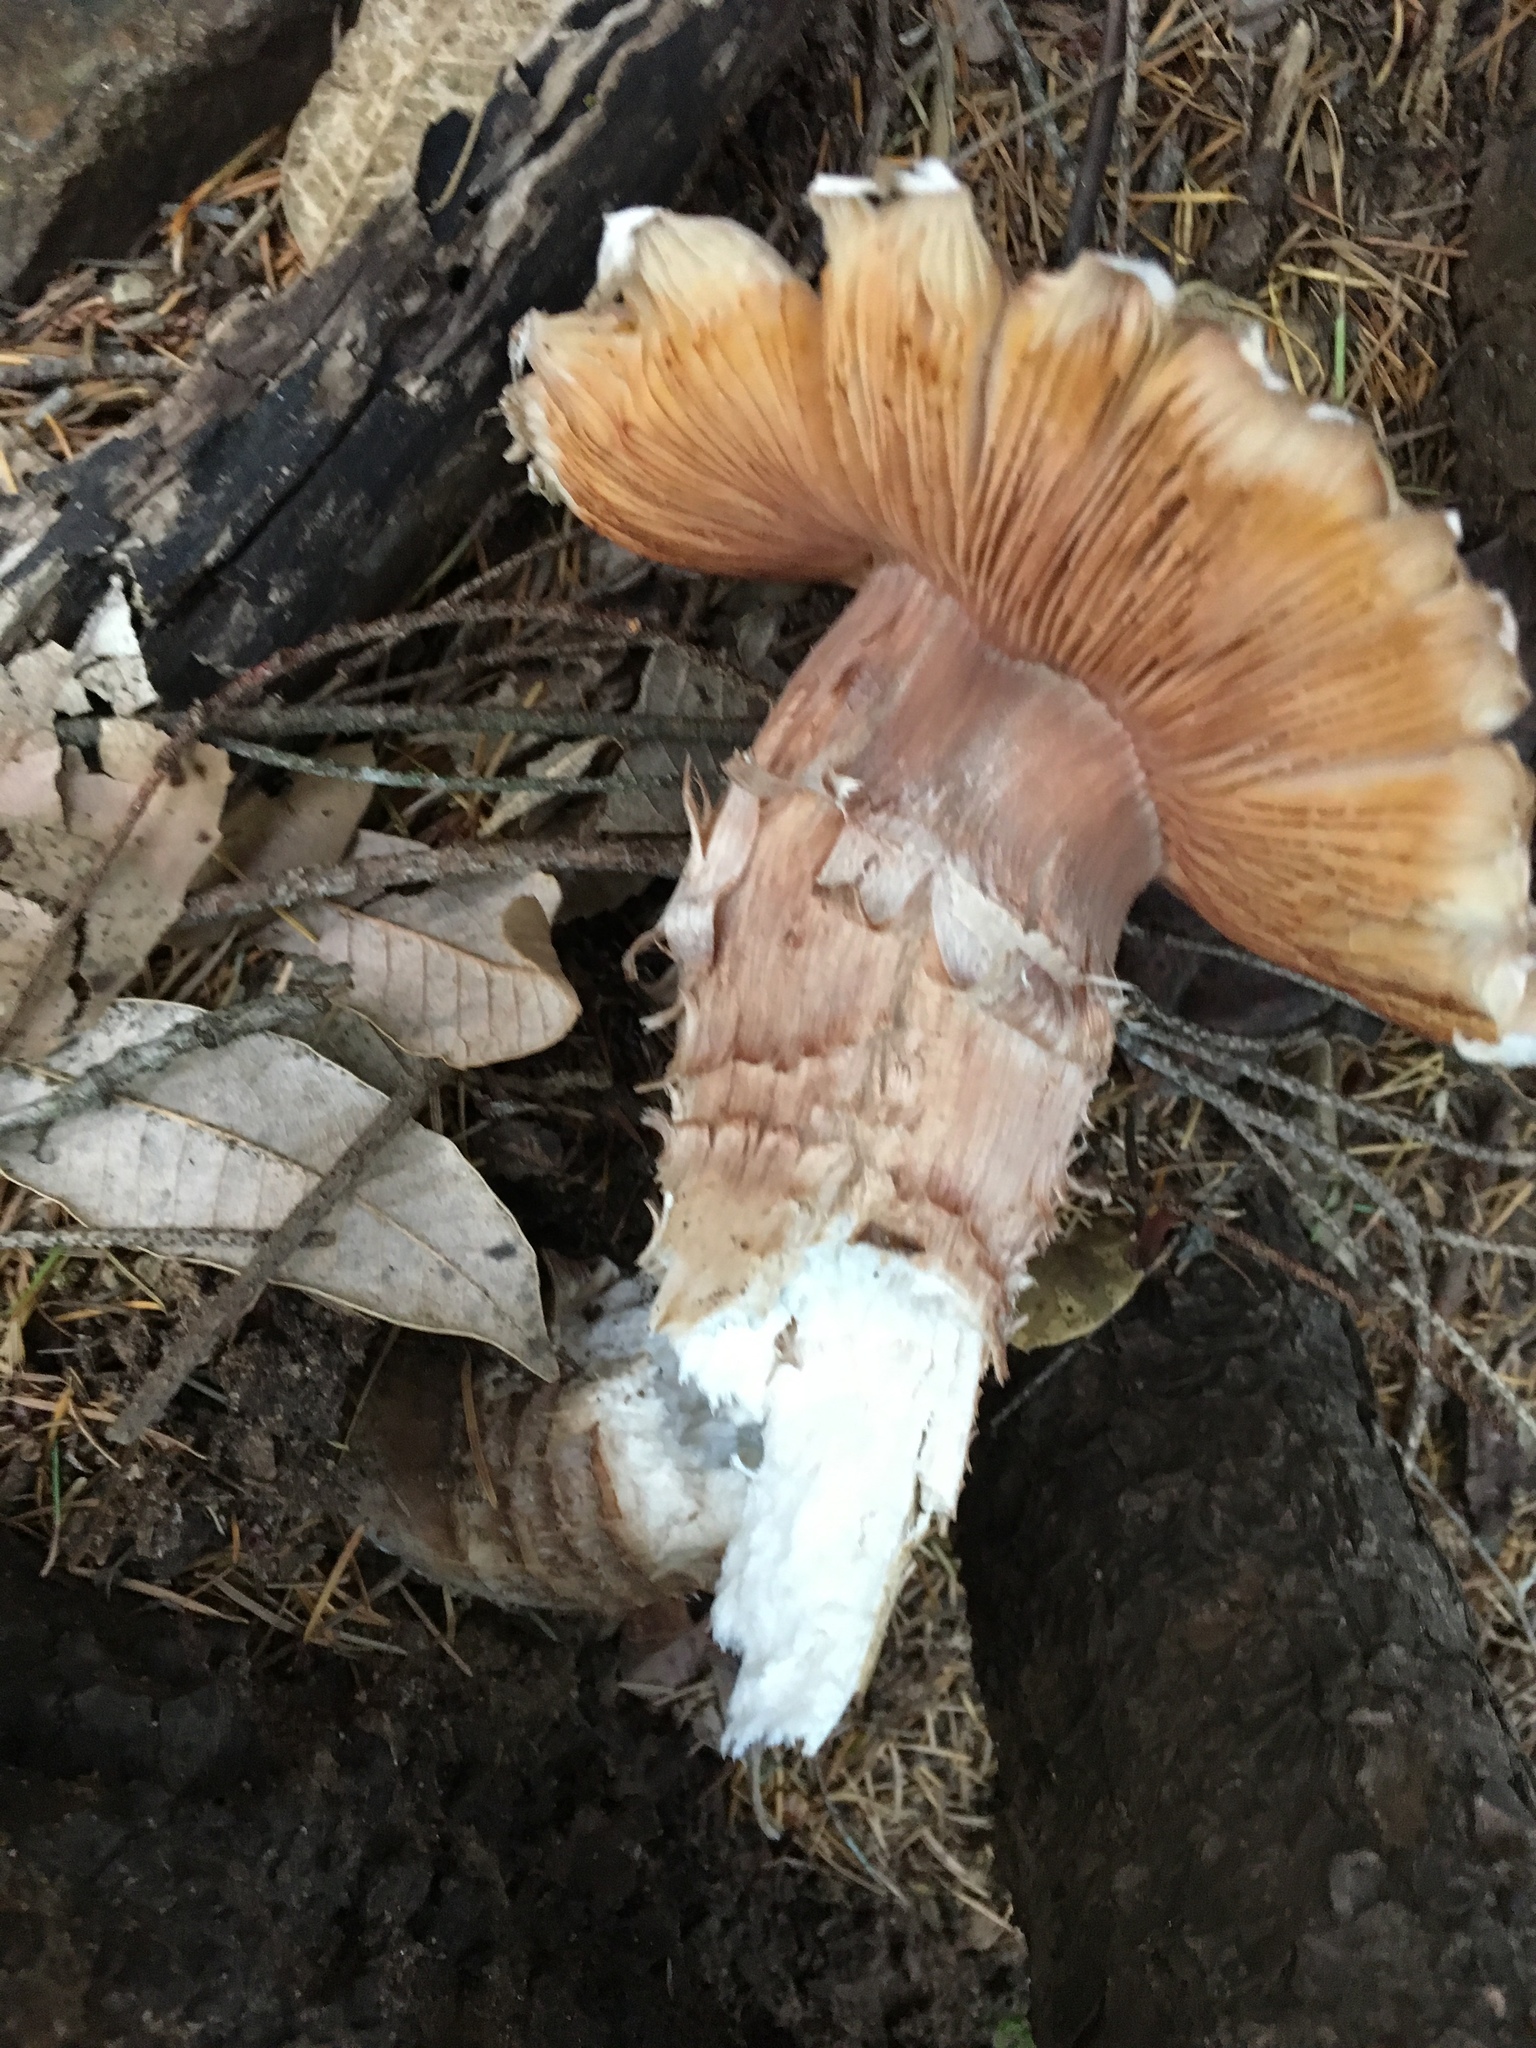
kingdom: Fungi
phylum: Basidiomycota
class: Agaricomycetes
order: Agaricales
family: Physalacriaceae
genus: Armillaria
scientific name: Armillaria mellea
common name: Honey fungus
